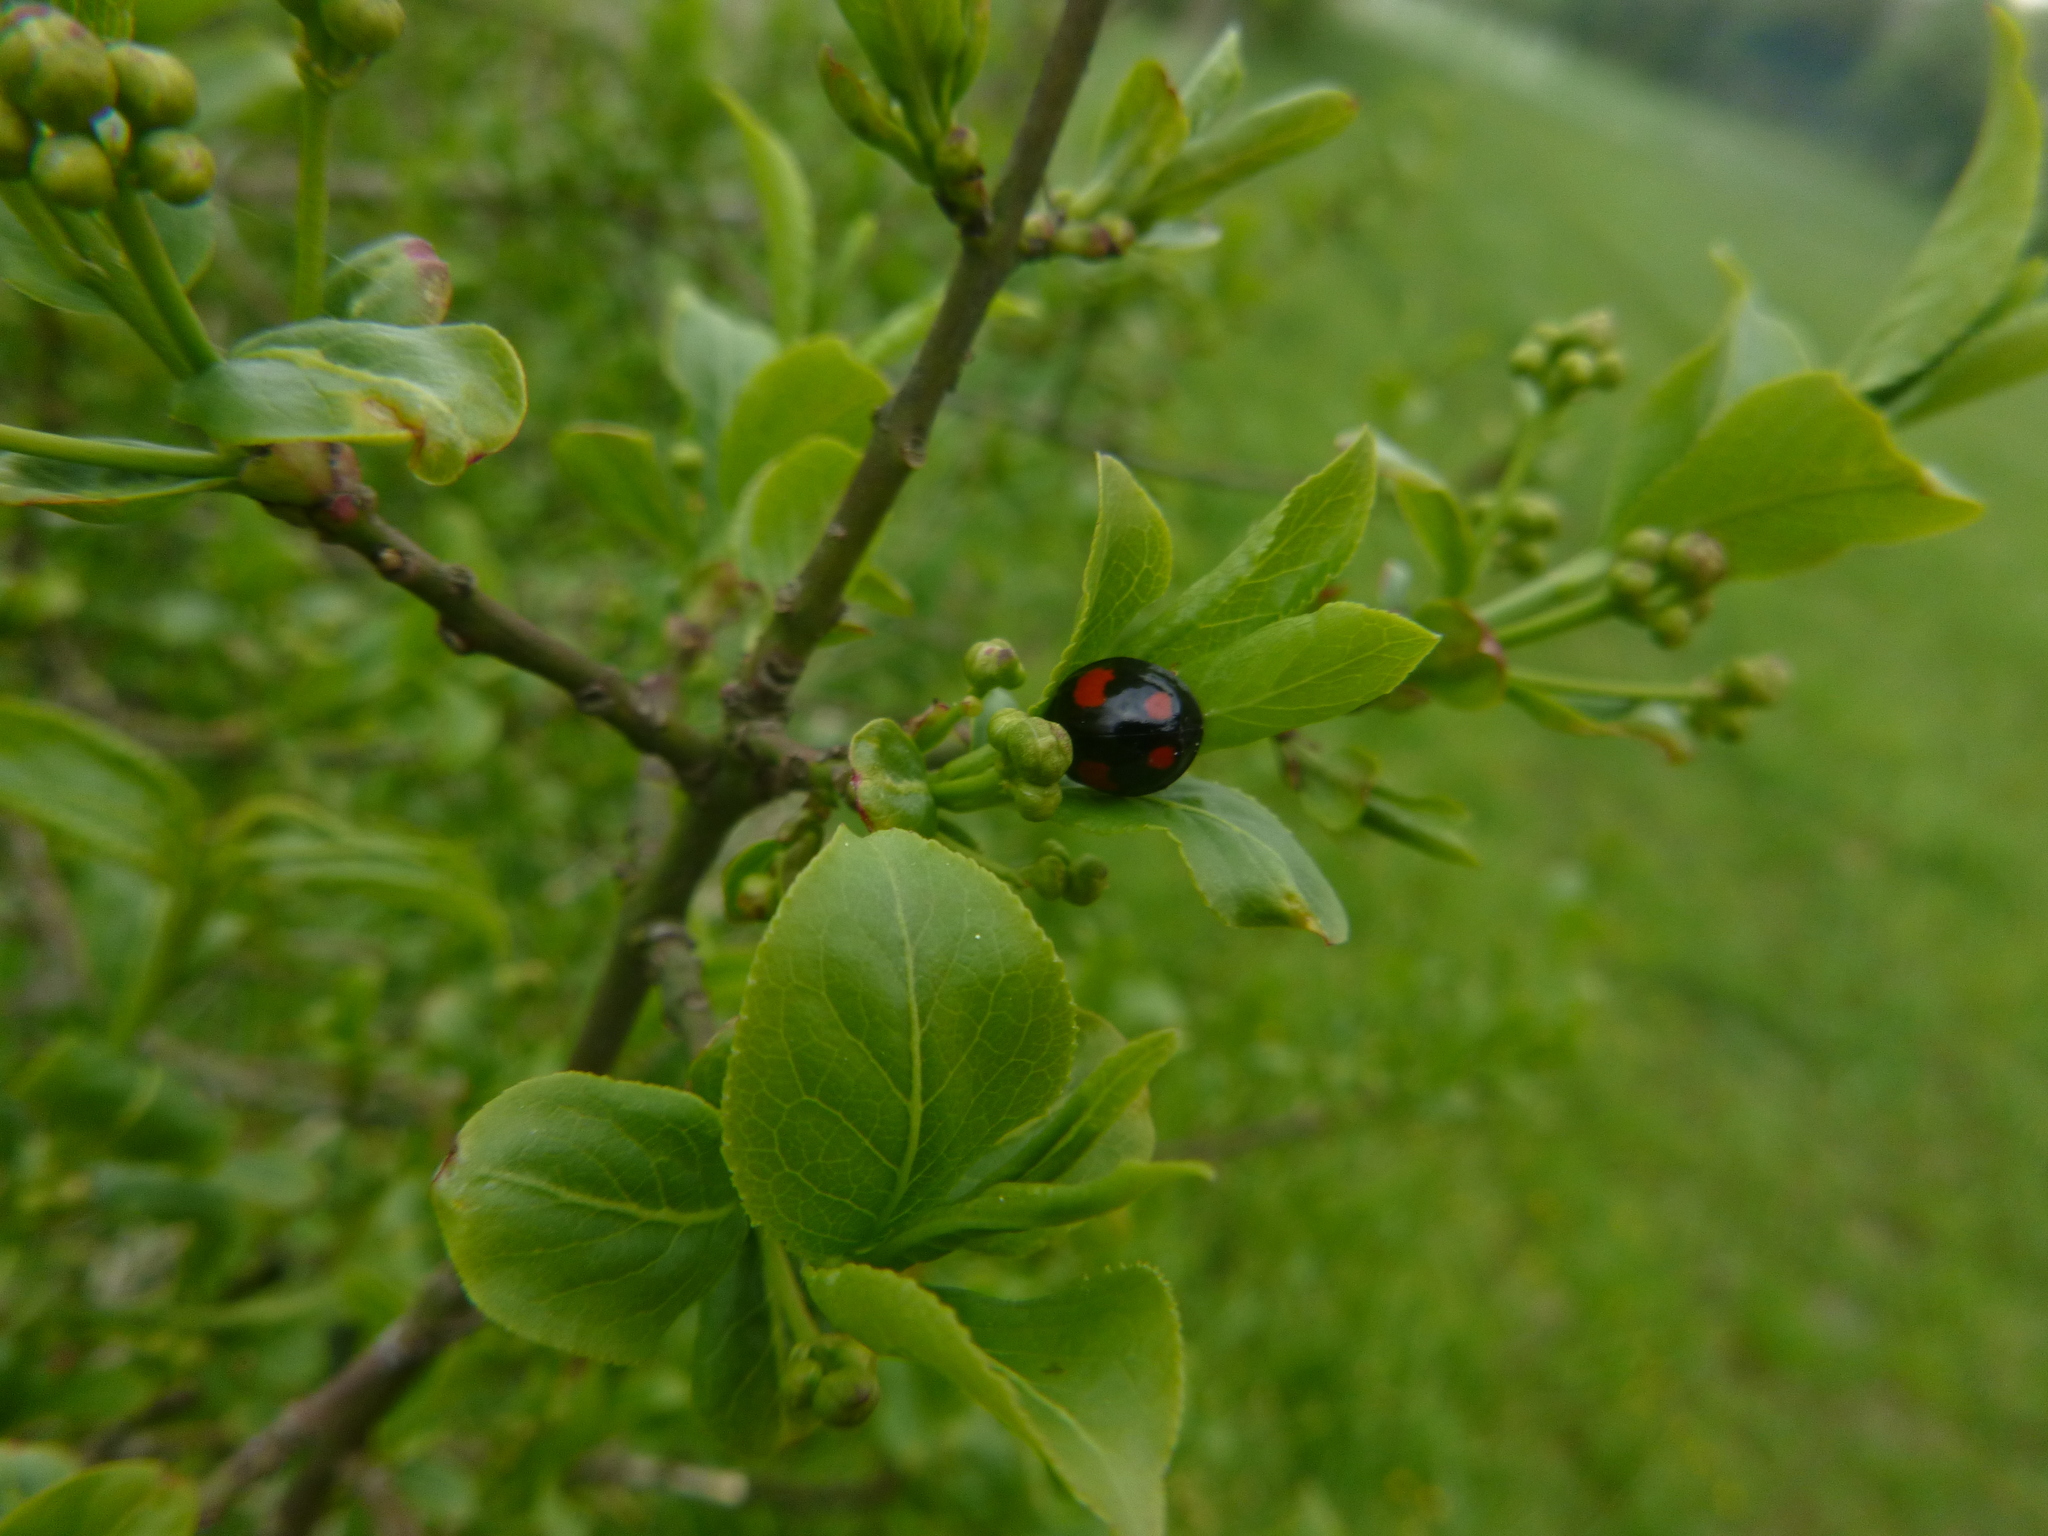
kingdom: Animalia
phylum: Arthropoda
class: Insecta
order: Coleoptera
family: Coccinellidae
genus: Harmonia
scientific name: Harmonia axyridis
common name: Harlequin ladybird
